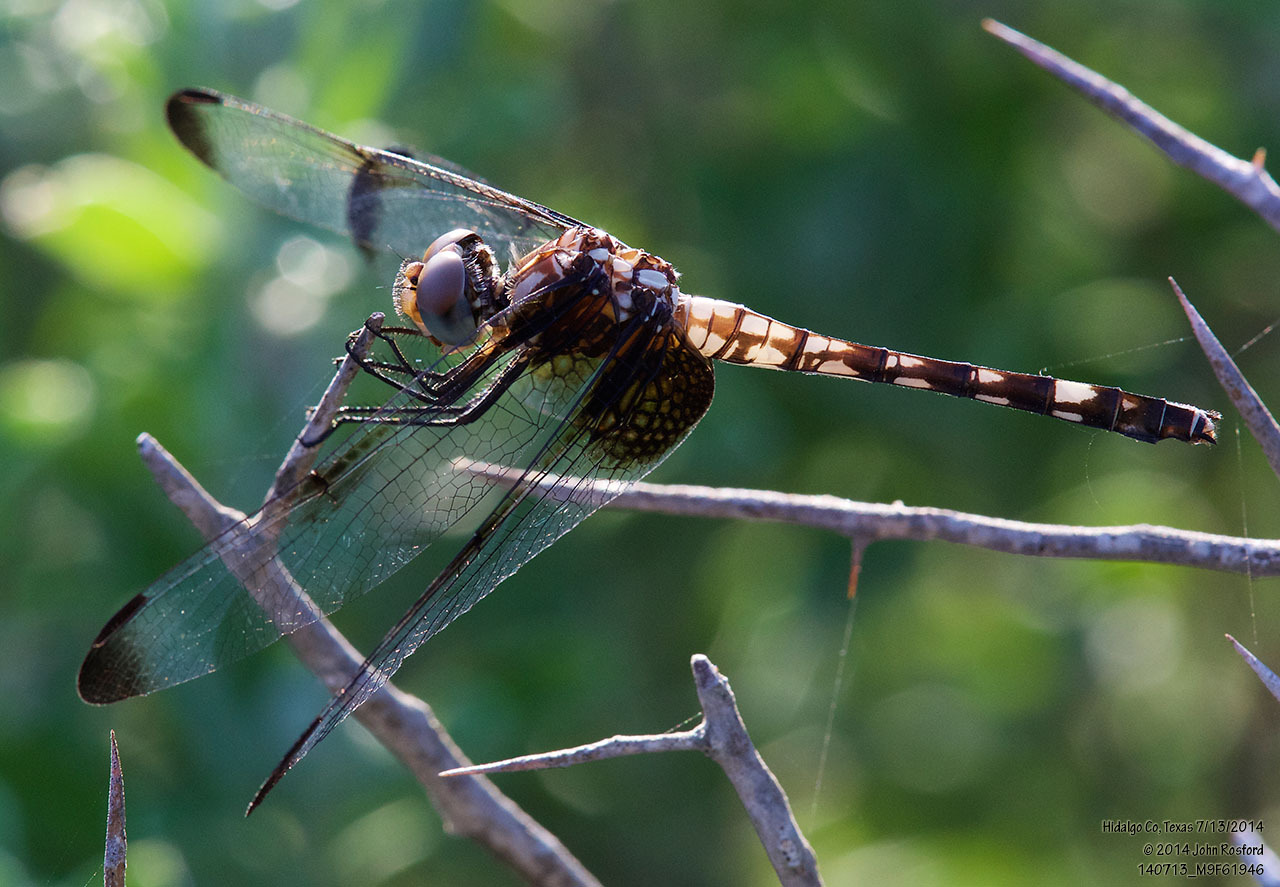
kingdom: Animalia
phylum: Arthropoda
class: Insecta
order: Odonata
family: Libellulidae
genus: Dythemis
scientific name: Dythemis fugax
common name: Checkered setwing
